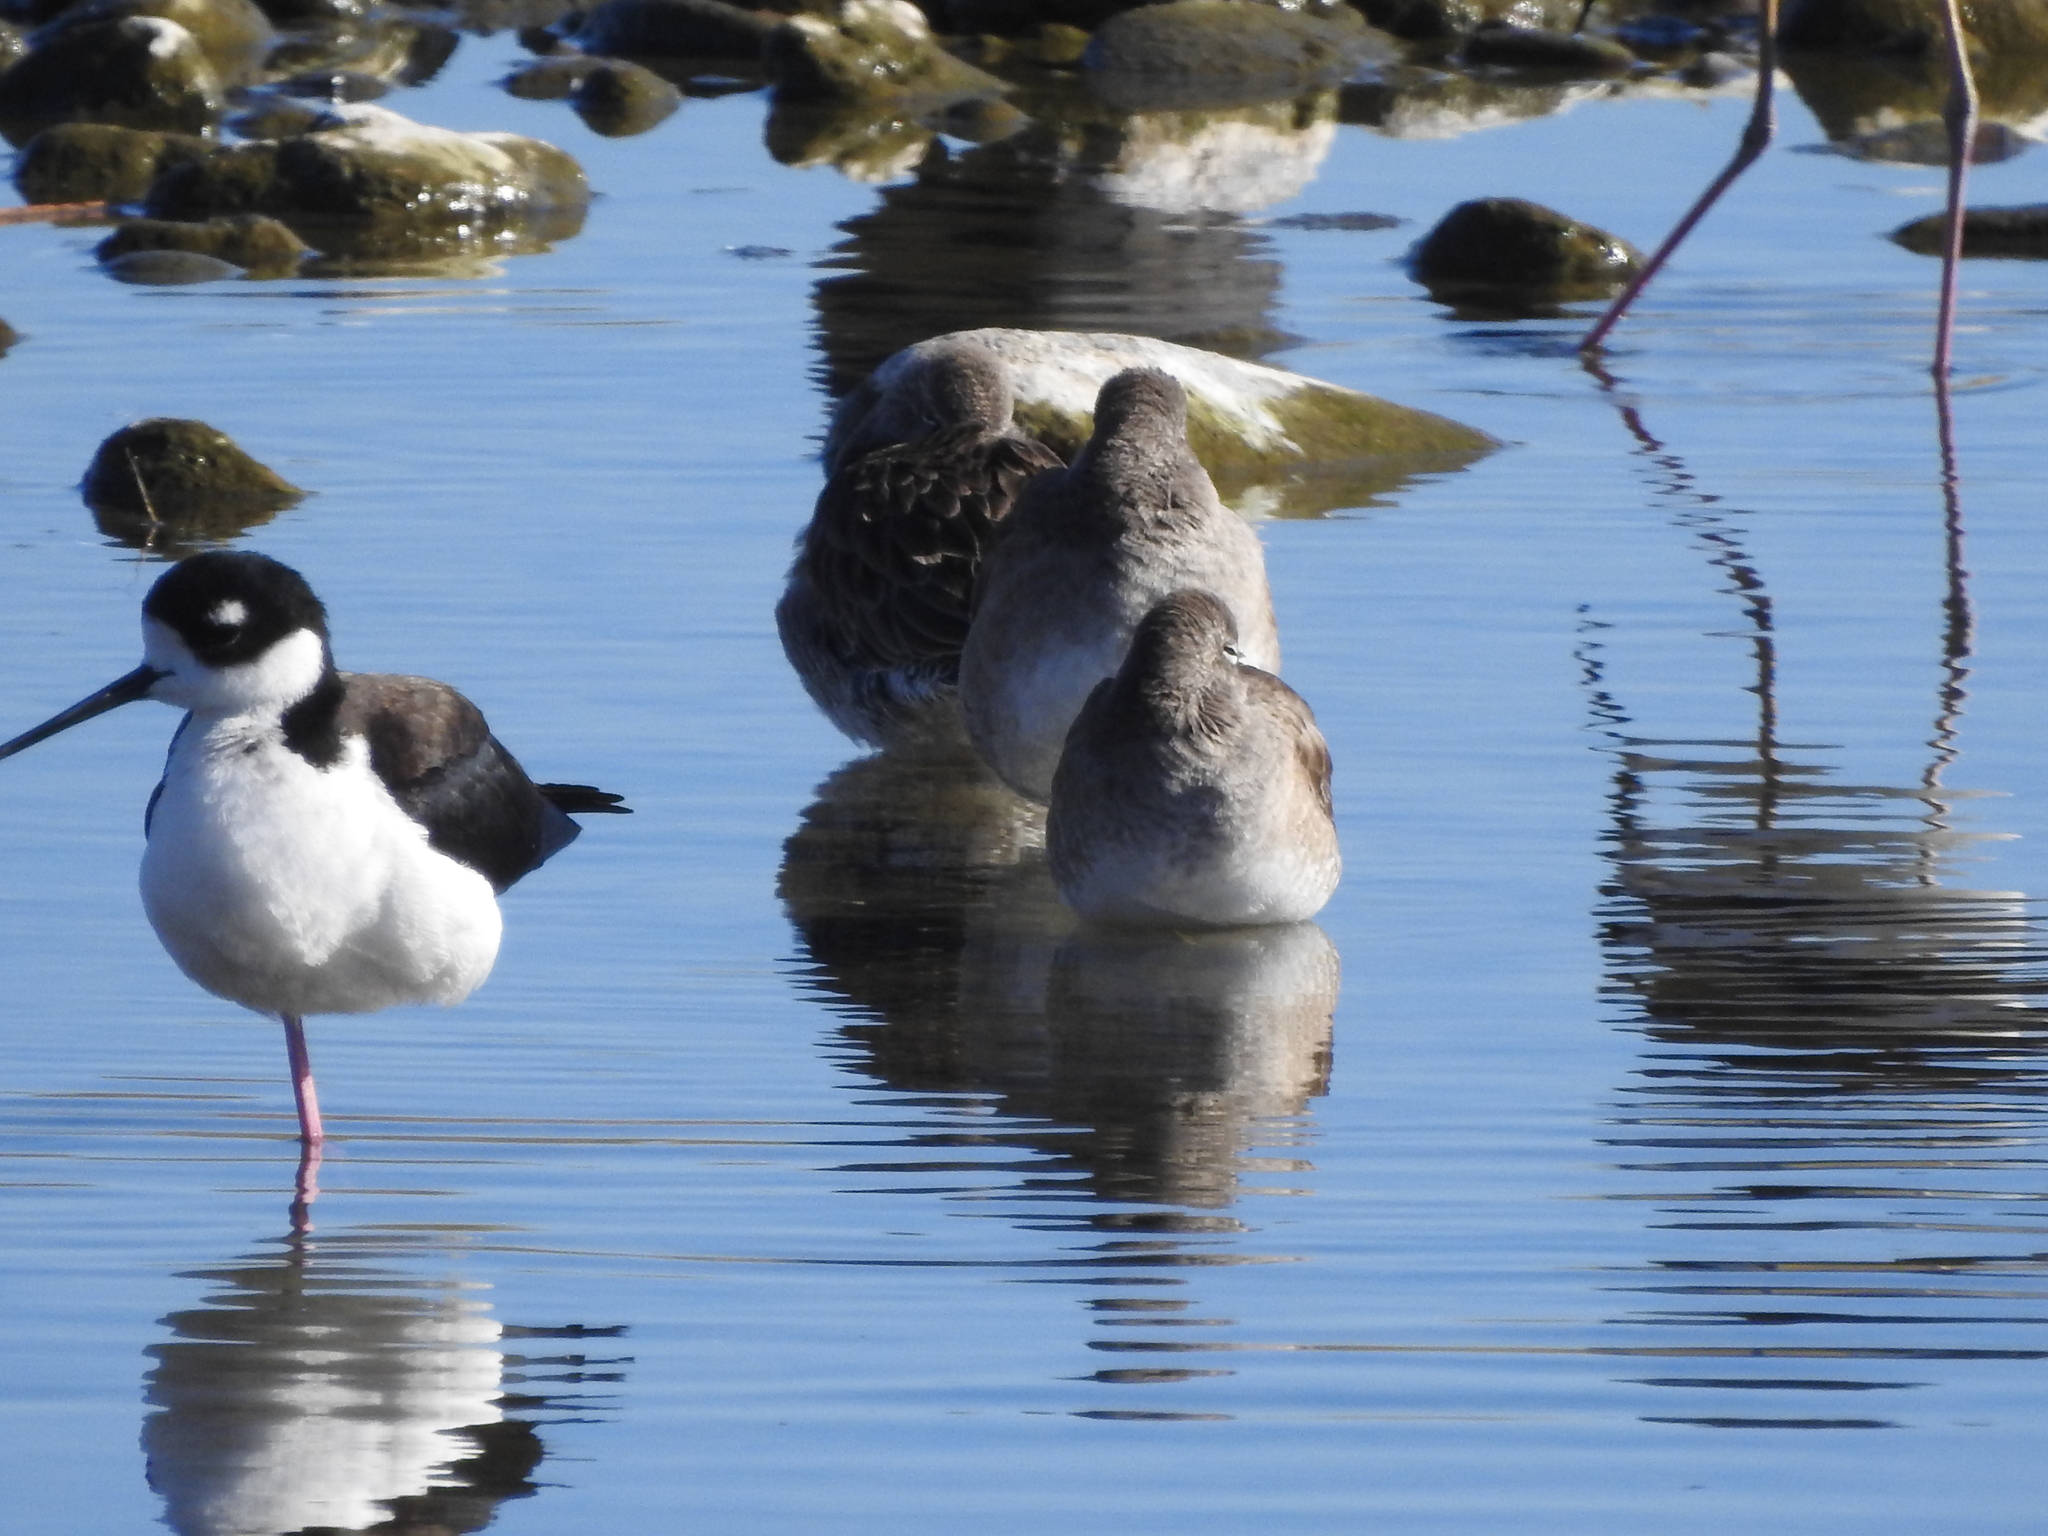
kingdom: Animalia
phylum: Chordata
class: Aves
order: Charadriiformes
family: Scolopacidae
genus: Limnodromus
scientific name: Limnodromus
